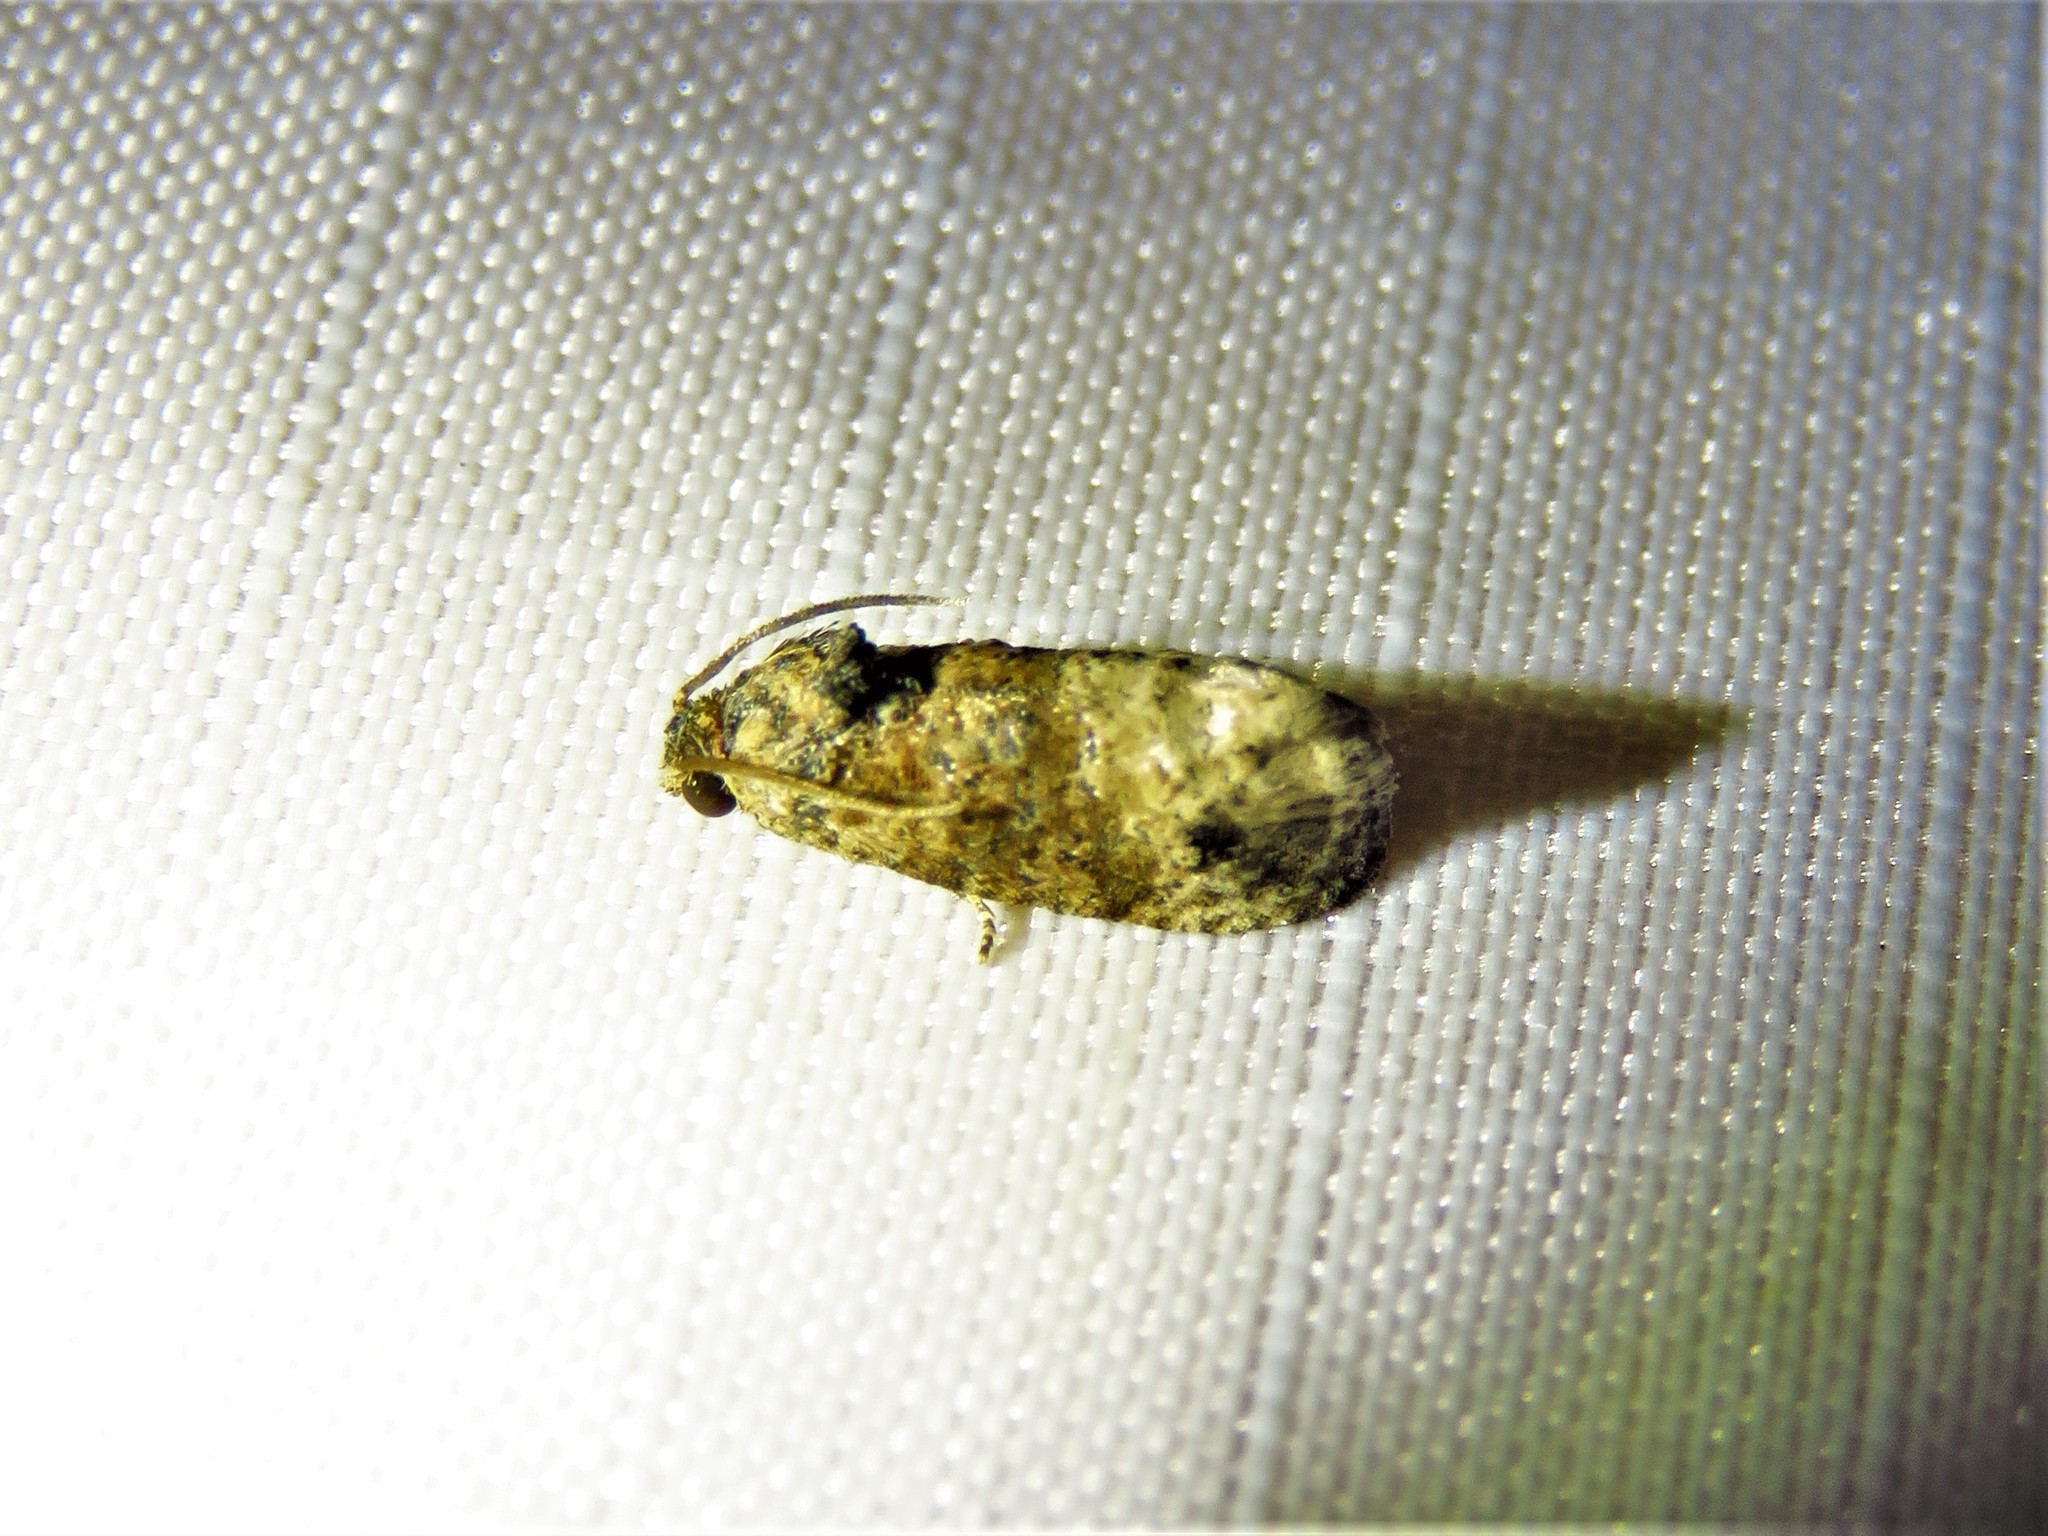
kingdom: Animalia
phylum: Arthropoda
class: Insecta
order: Lepidoptera
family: Tortricidae
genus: Ecdytolopha
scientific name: Ecdytolopha mana
